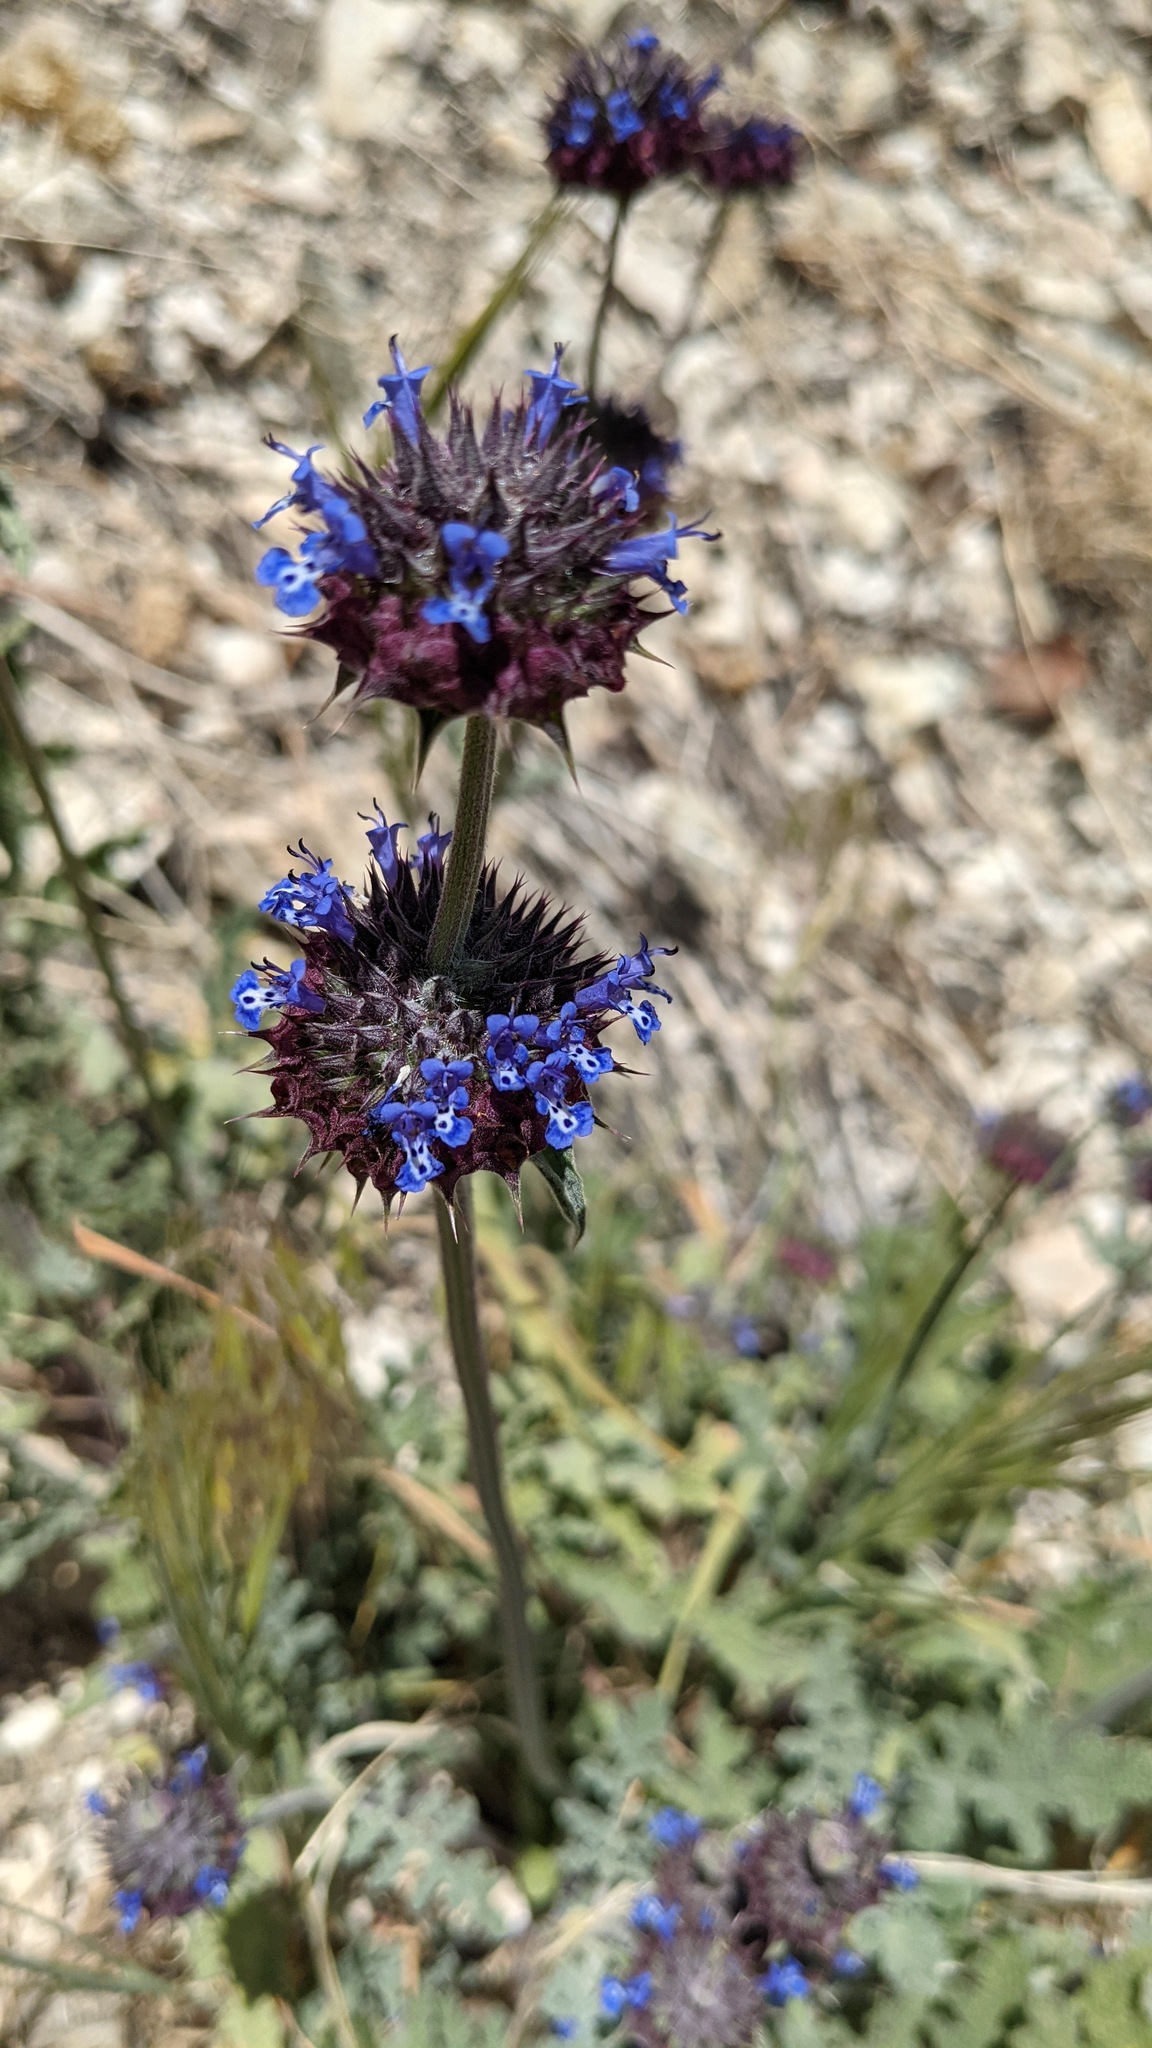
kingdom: Plantae
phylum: Tracheophyta
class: Magnoliopsida
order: Lamiales
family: Lamiaceae
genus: Salvia
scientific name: Salvia columbariae
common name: Chia
